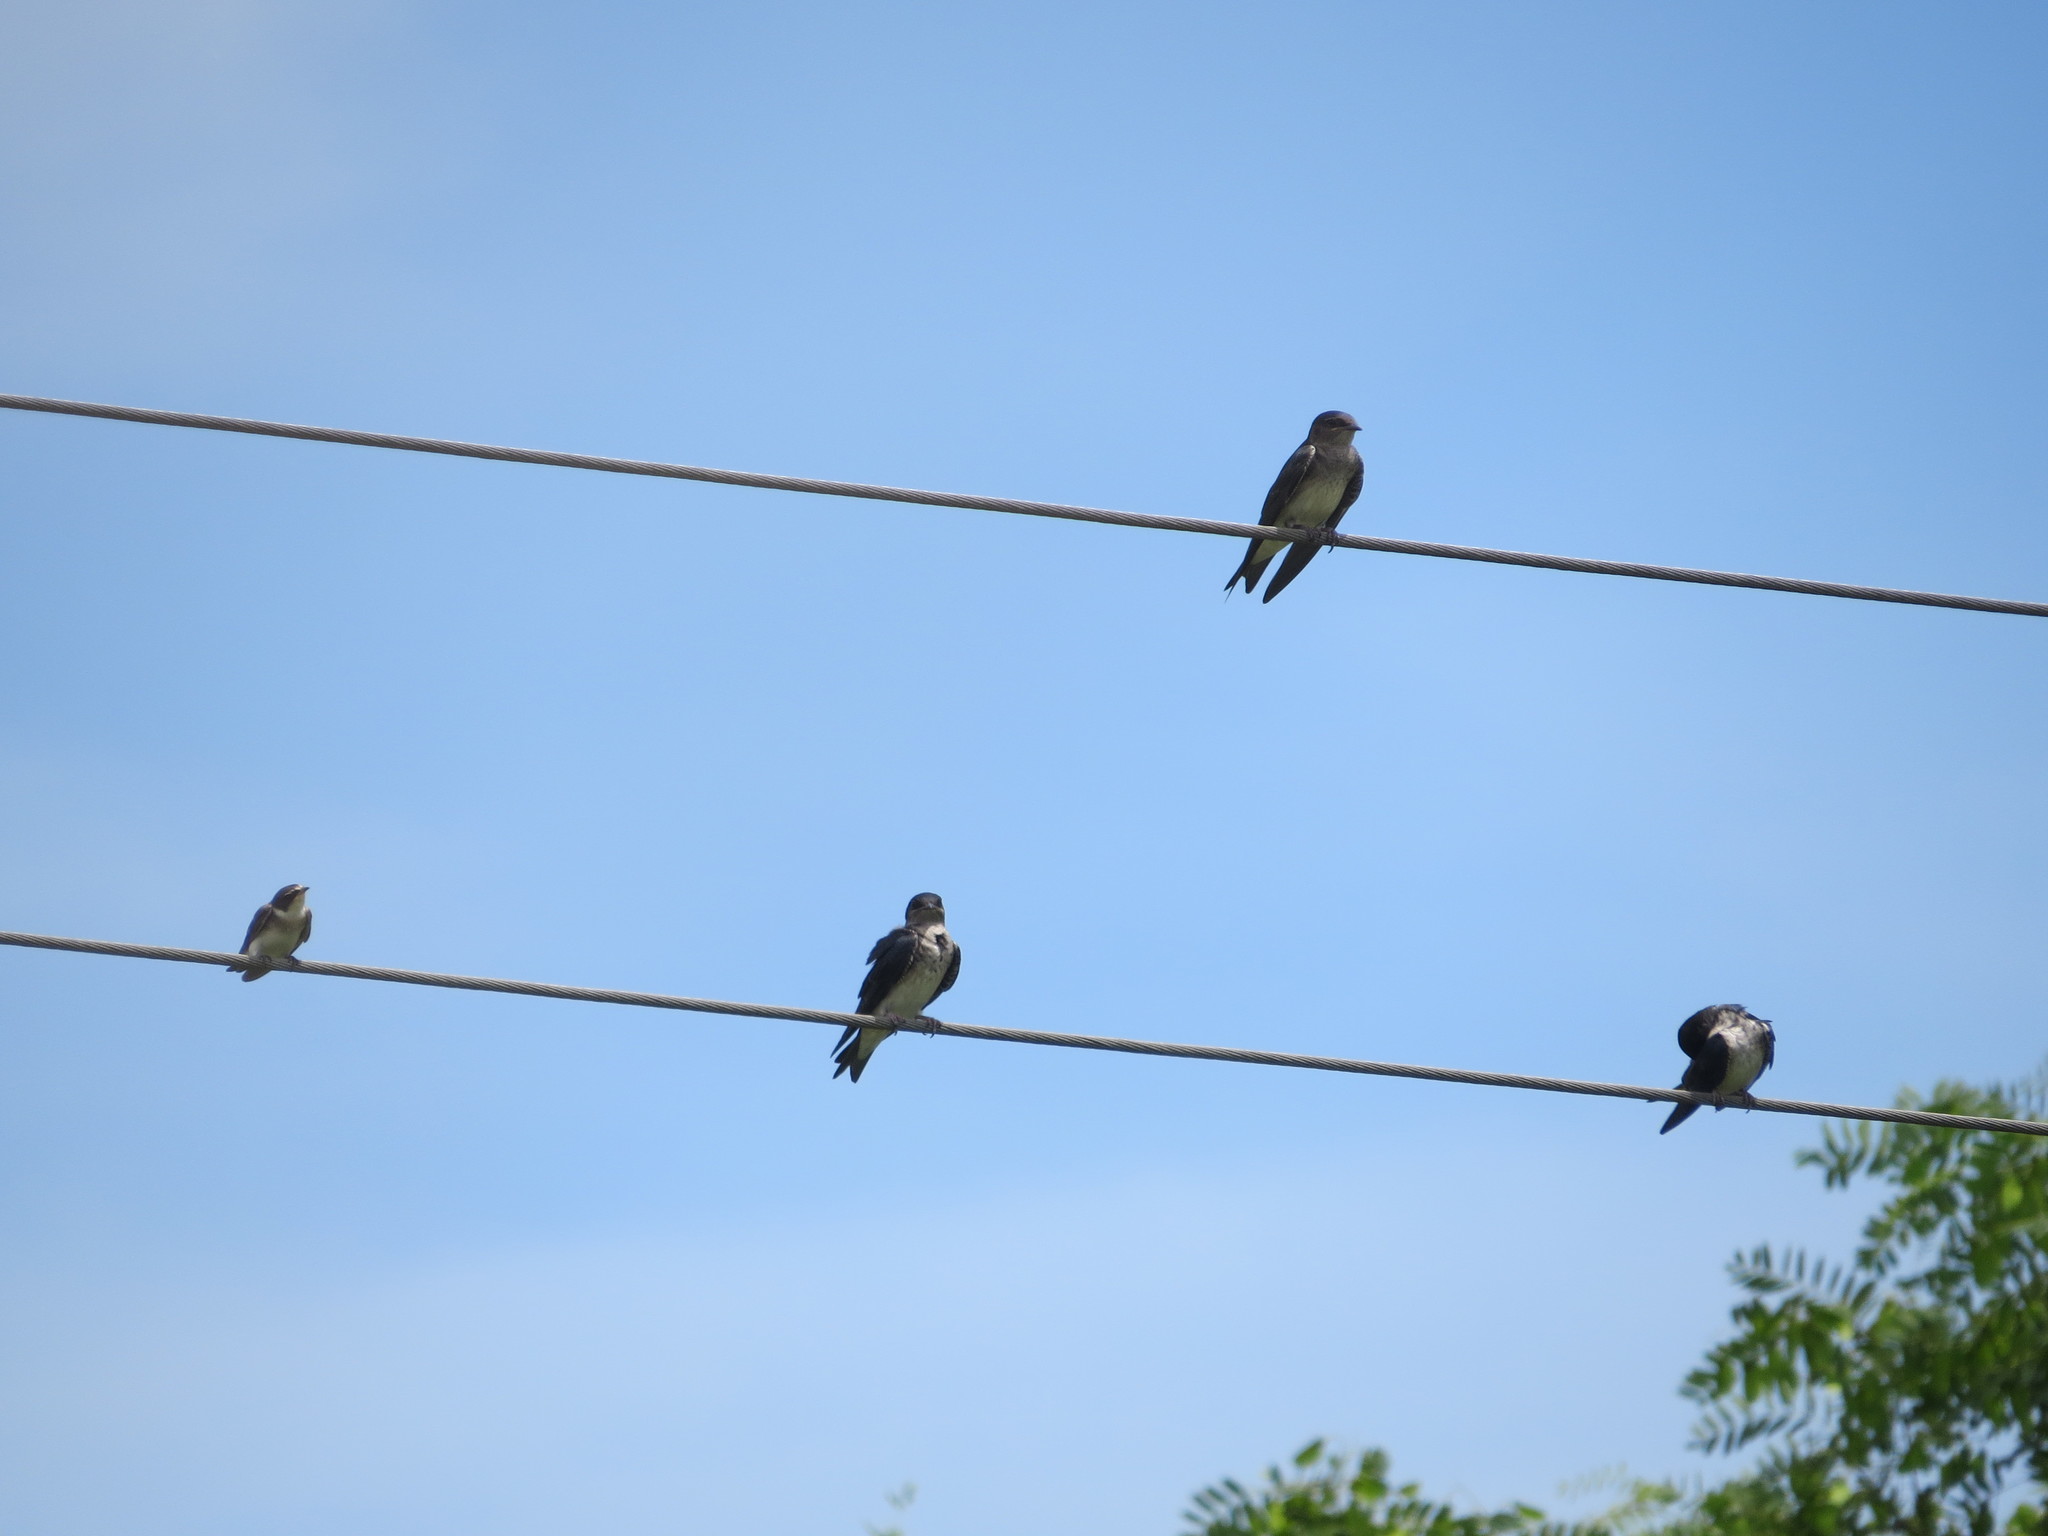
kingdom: Animalia
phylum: Chordata
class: Aves
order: Passeriformes
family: Hirundinidae
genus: Progne
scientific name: Progne chalybea
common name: Grey-breasted martin
